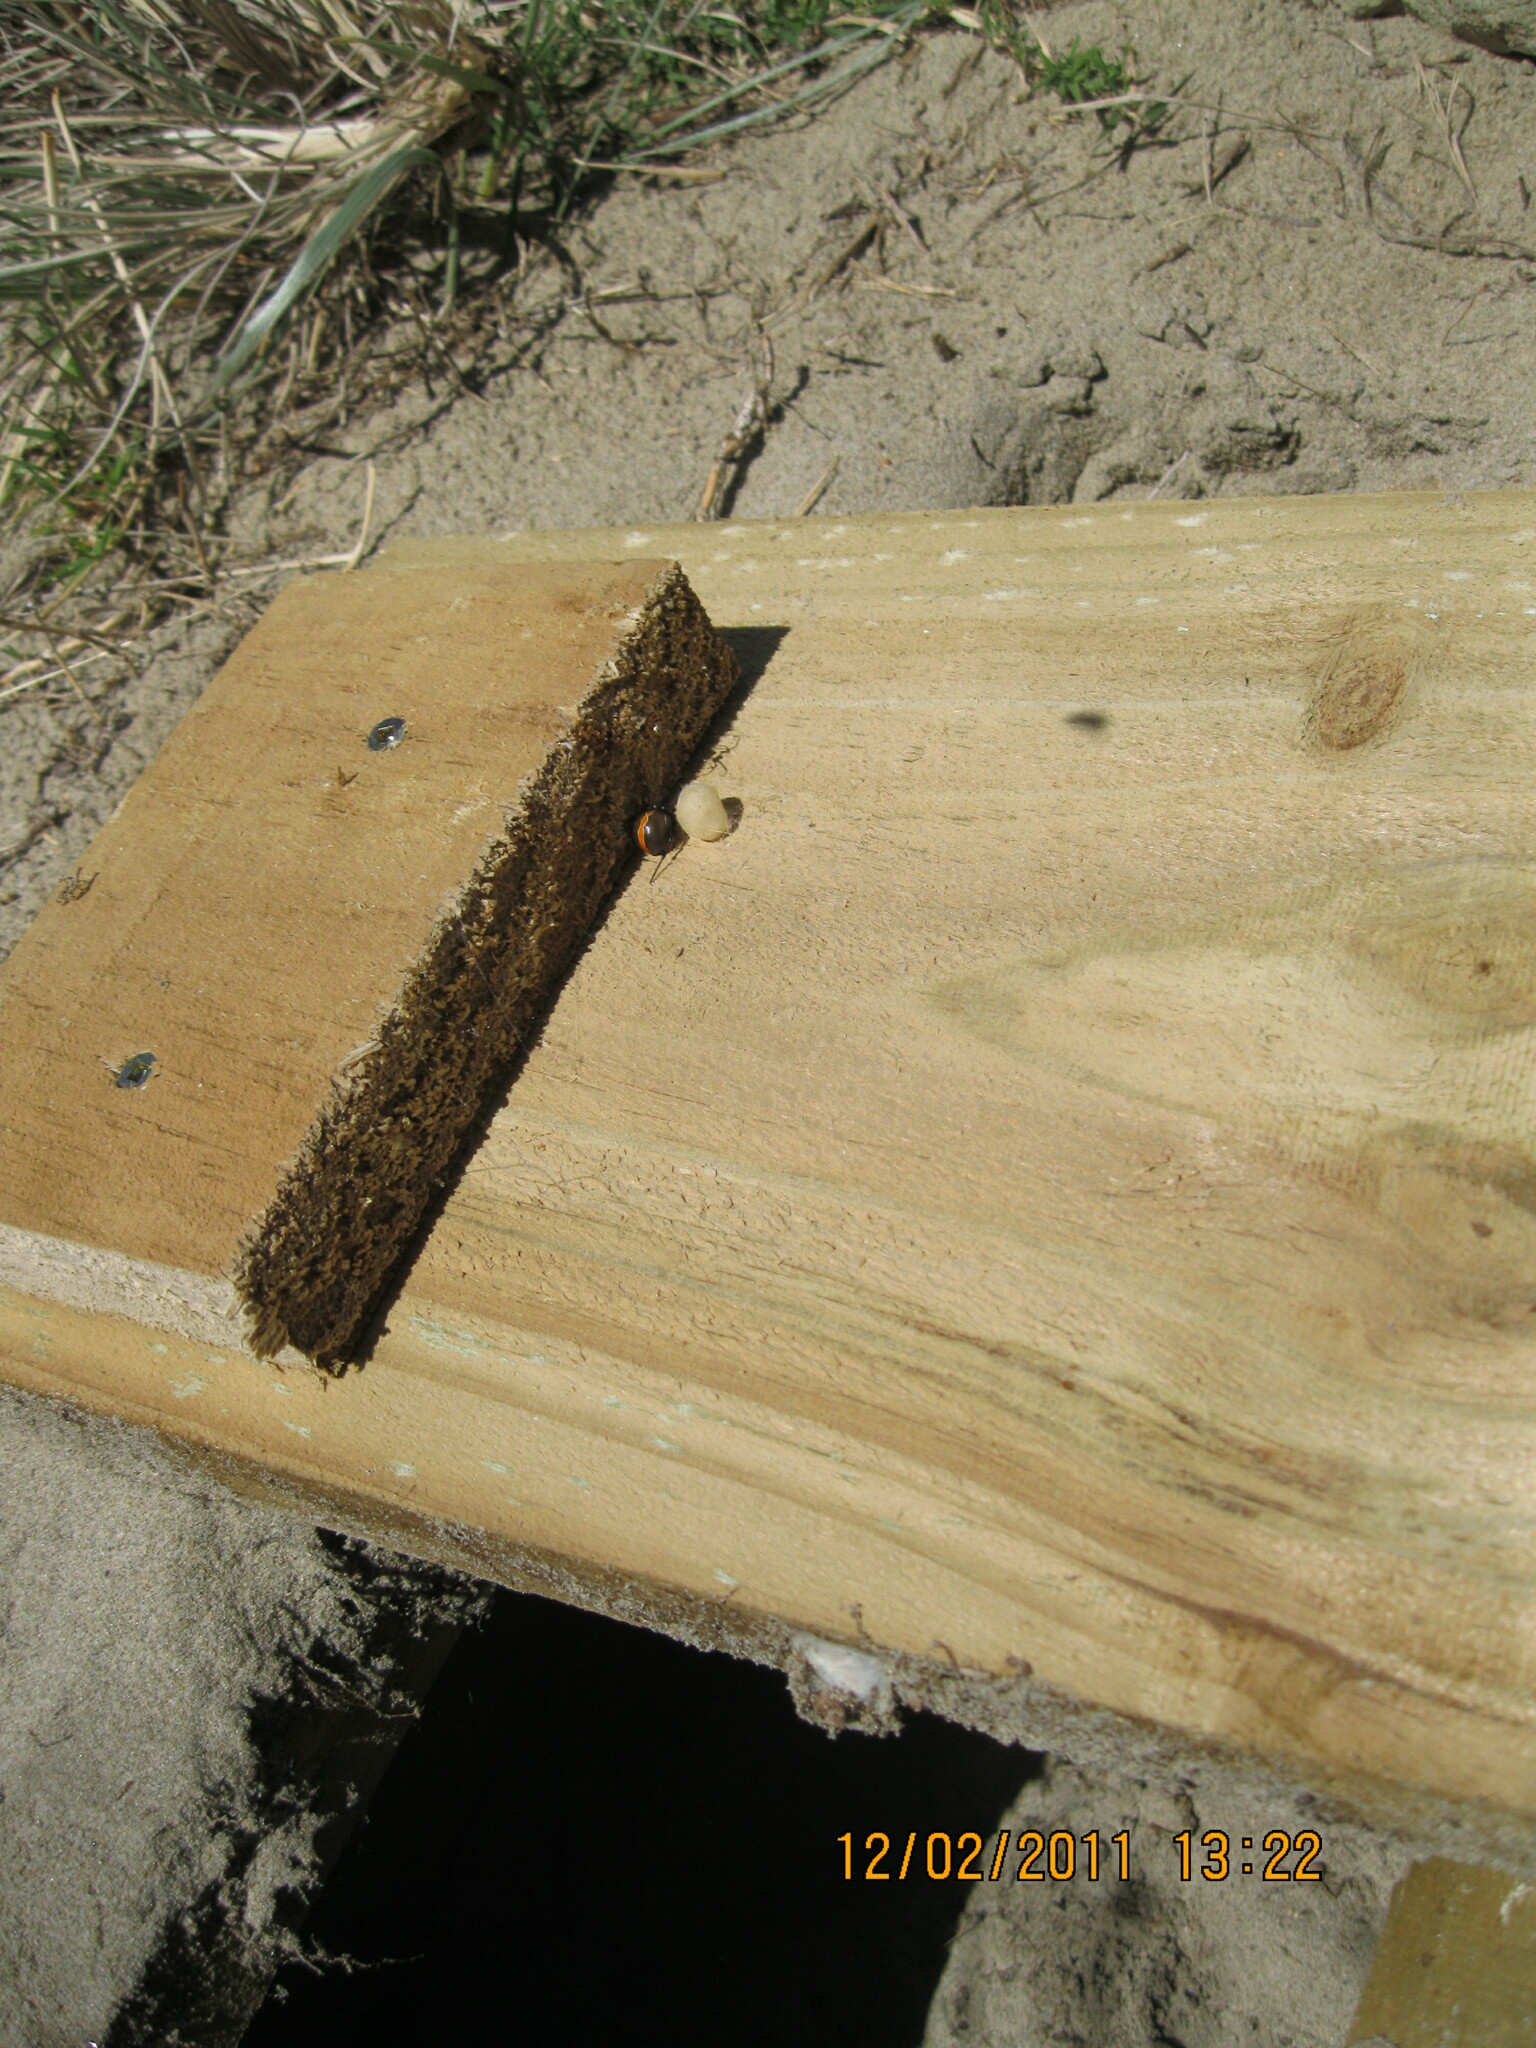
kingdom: Animalia
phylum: Arthropoda
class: Arachnida
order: Araneae
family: Theridiidae
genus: Latrodectus
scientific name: Latrodectus katipo
